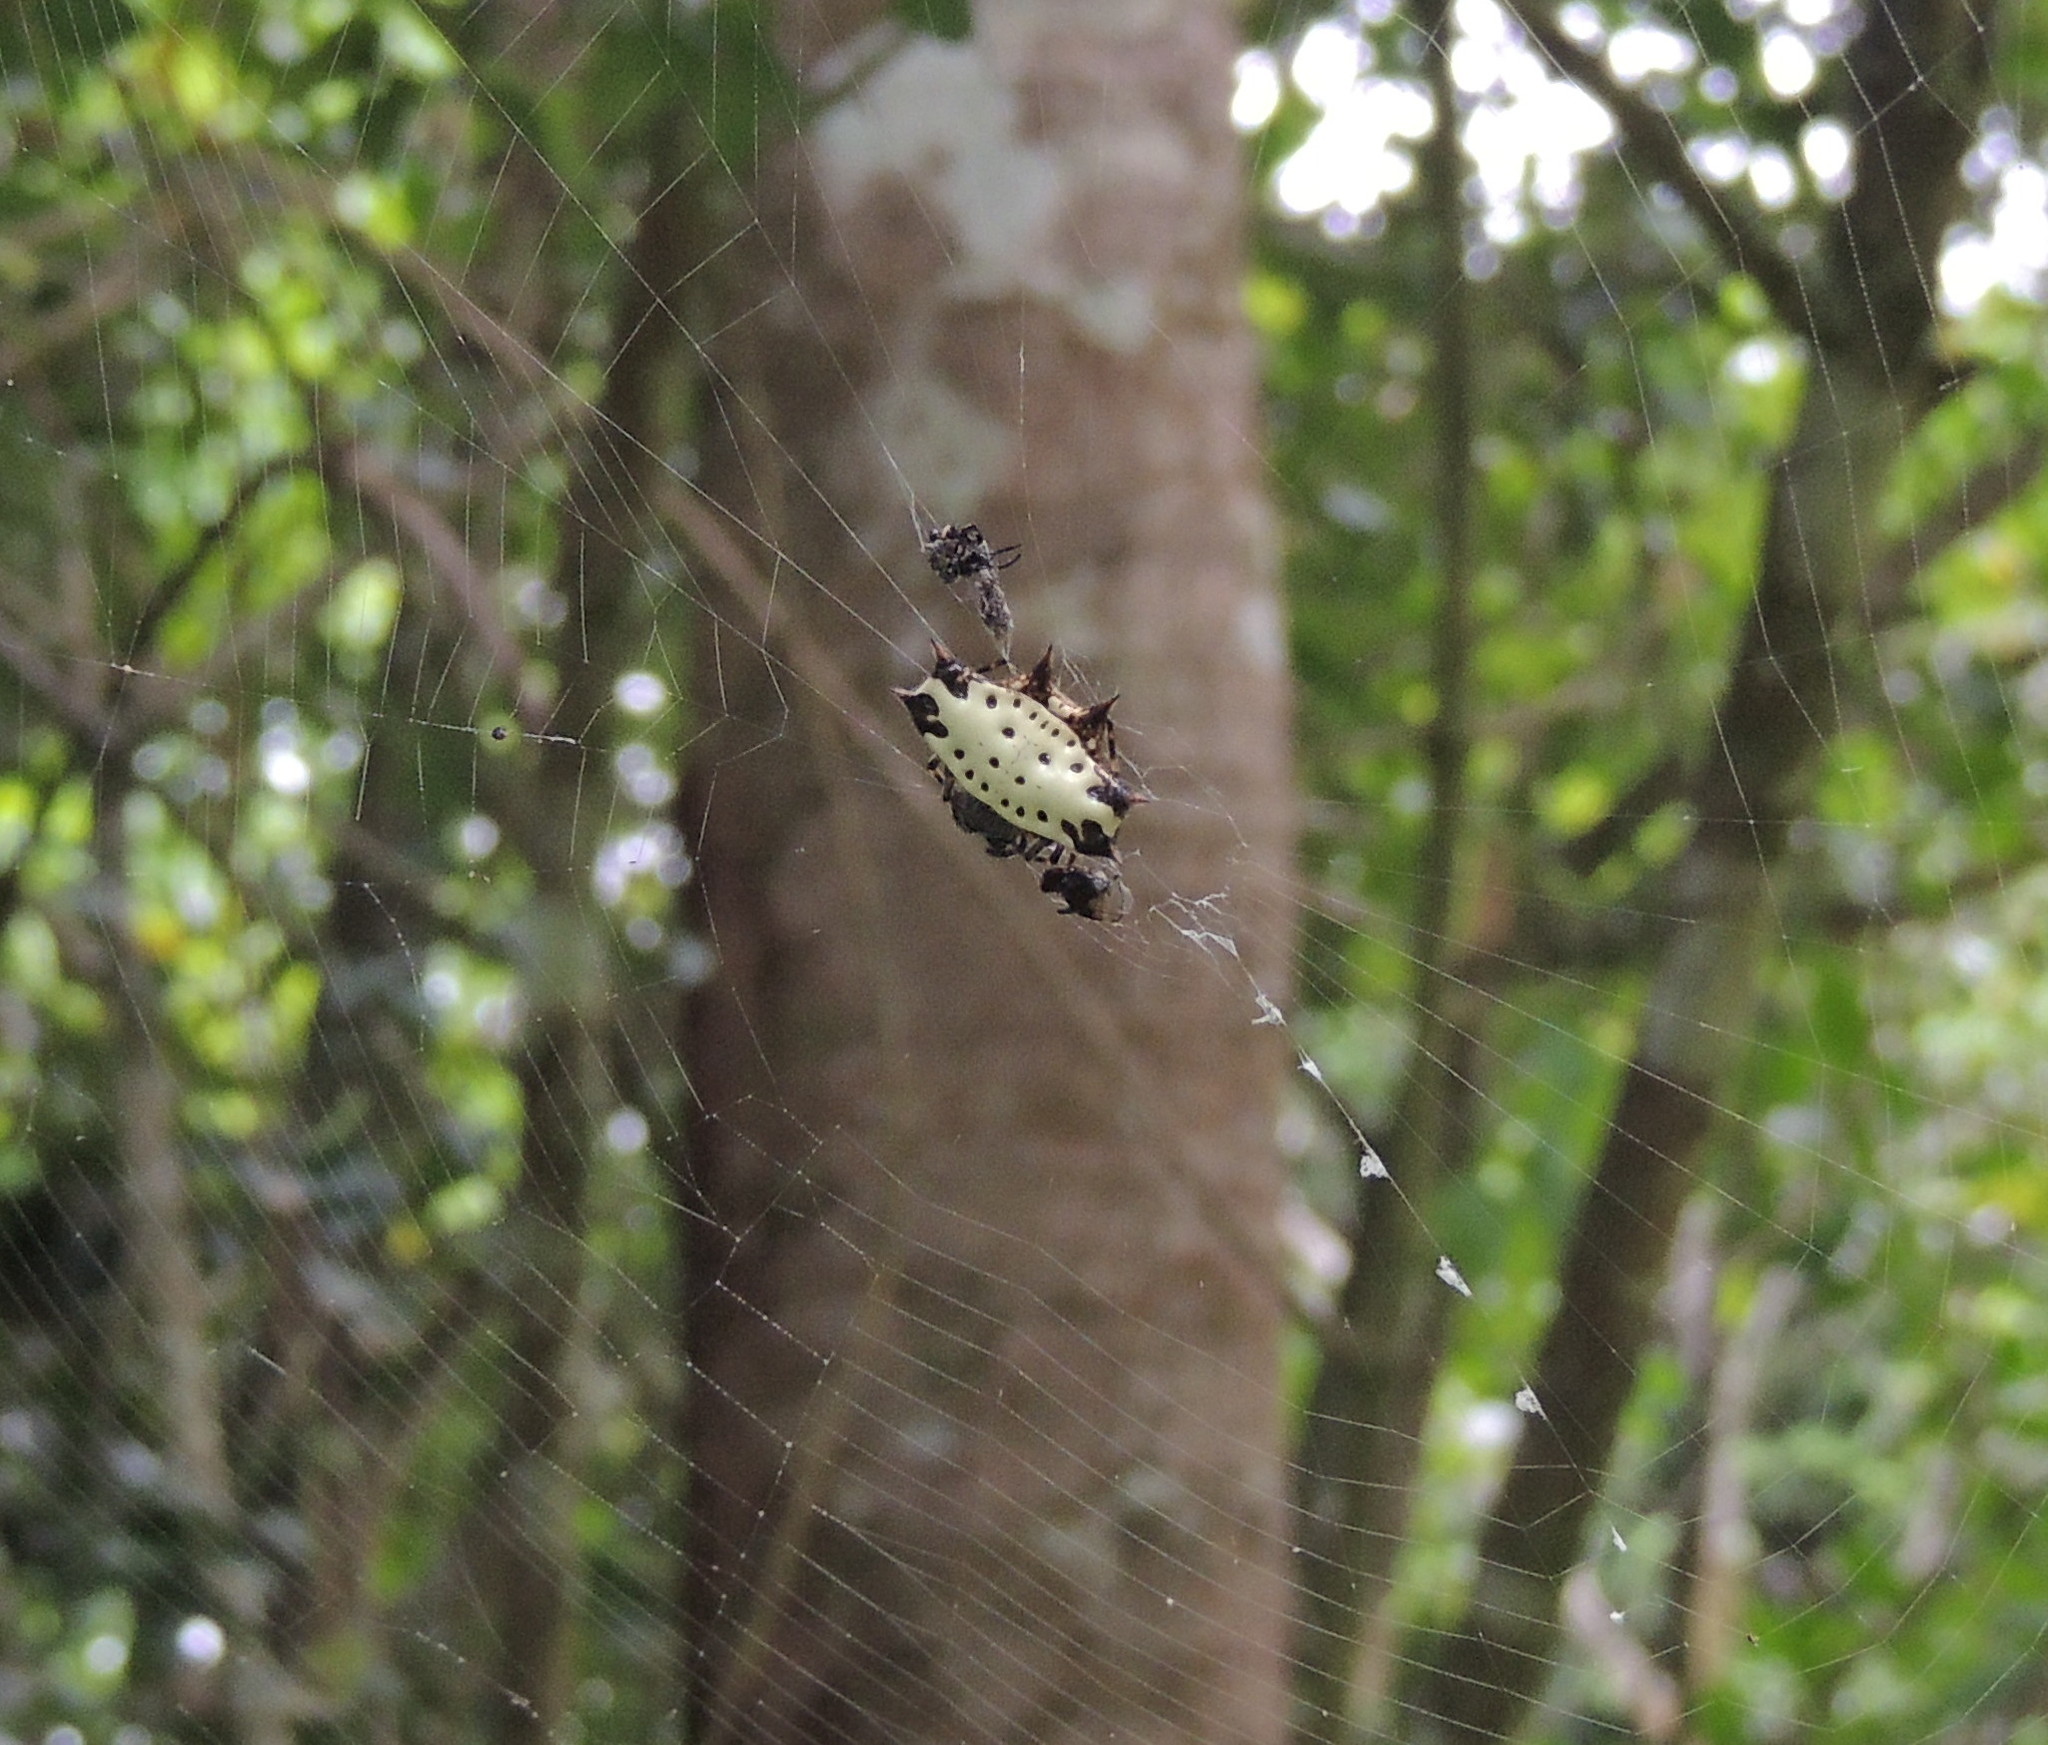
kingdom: Animalia
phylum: Arthropoda
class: Arachnida
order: Araneae
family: Araneidae
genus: Gasteracantha
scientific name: Gasteracantha cancriformis
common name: Orb weavers
